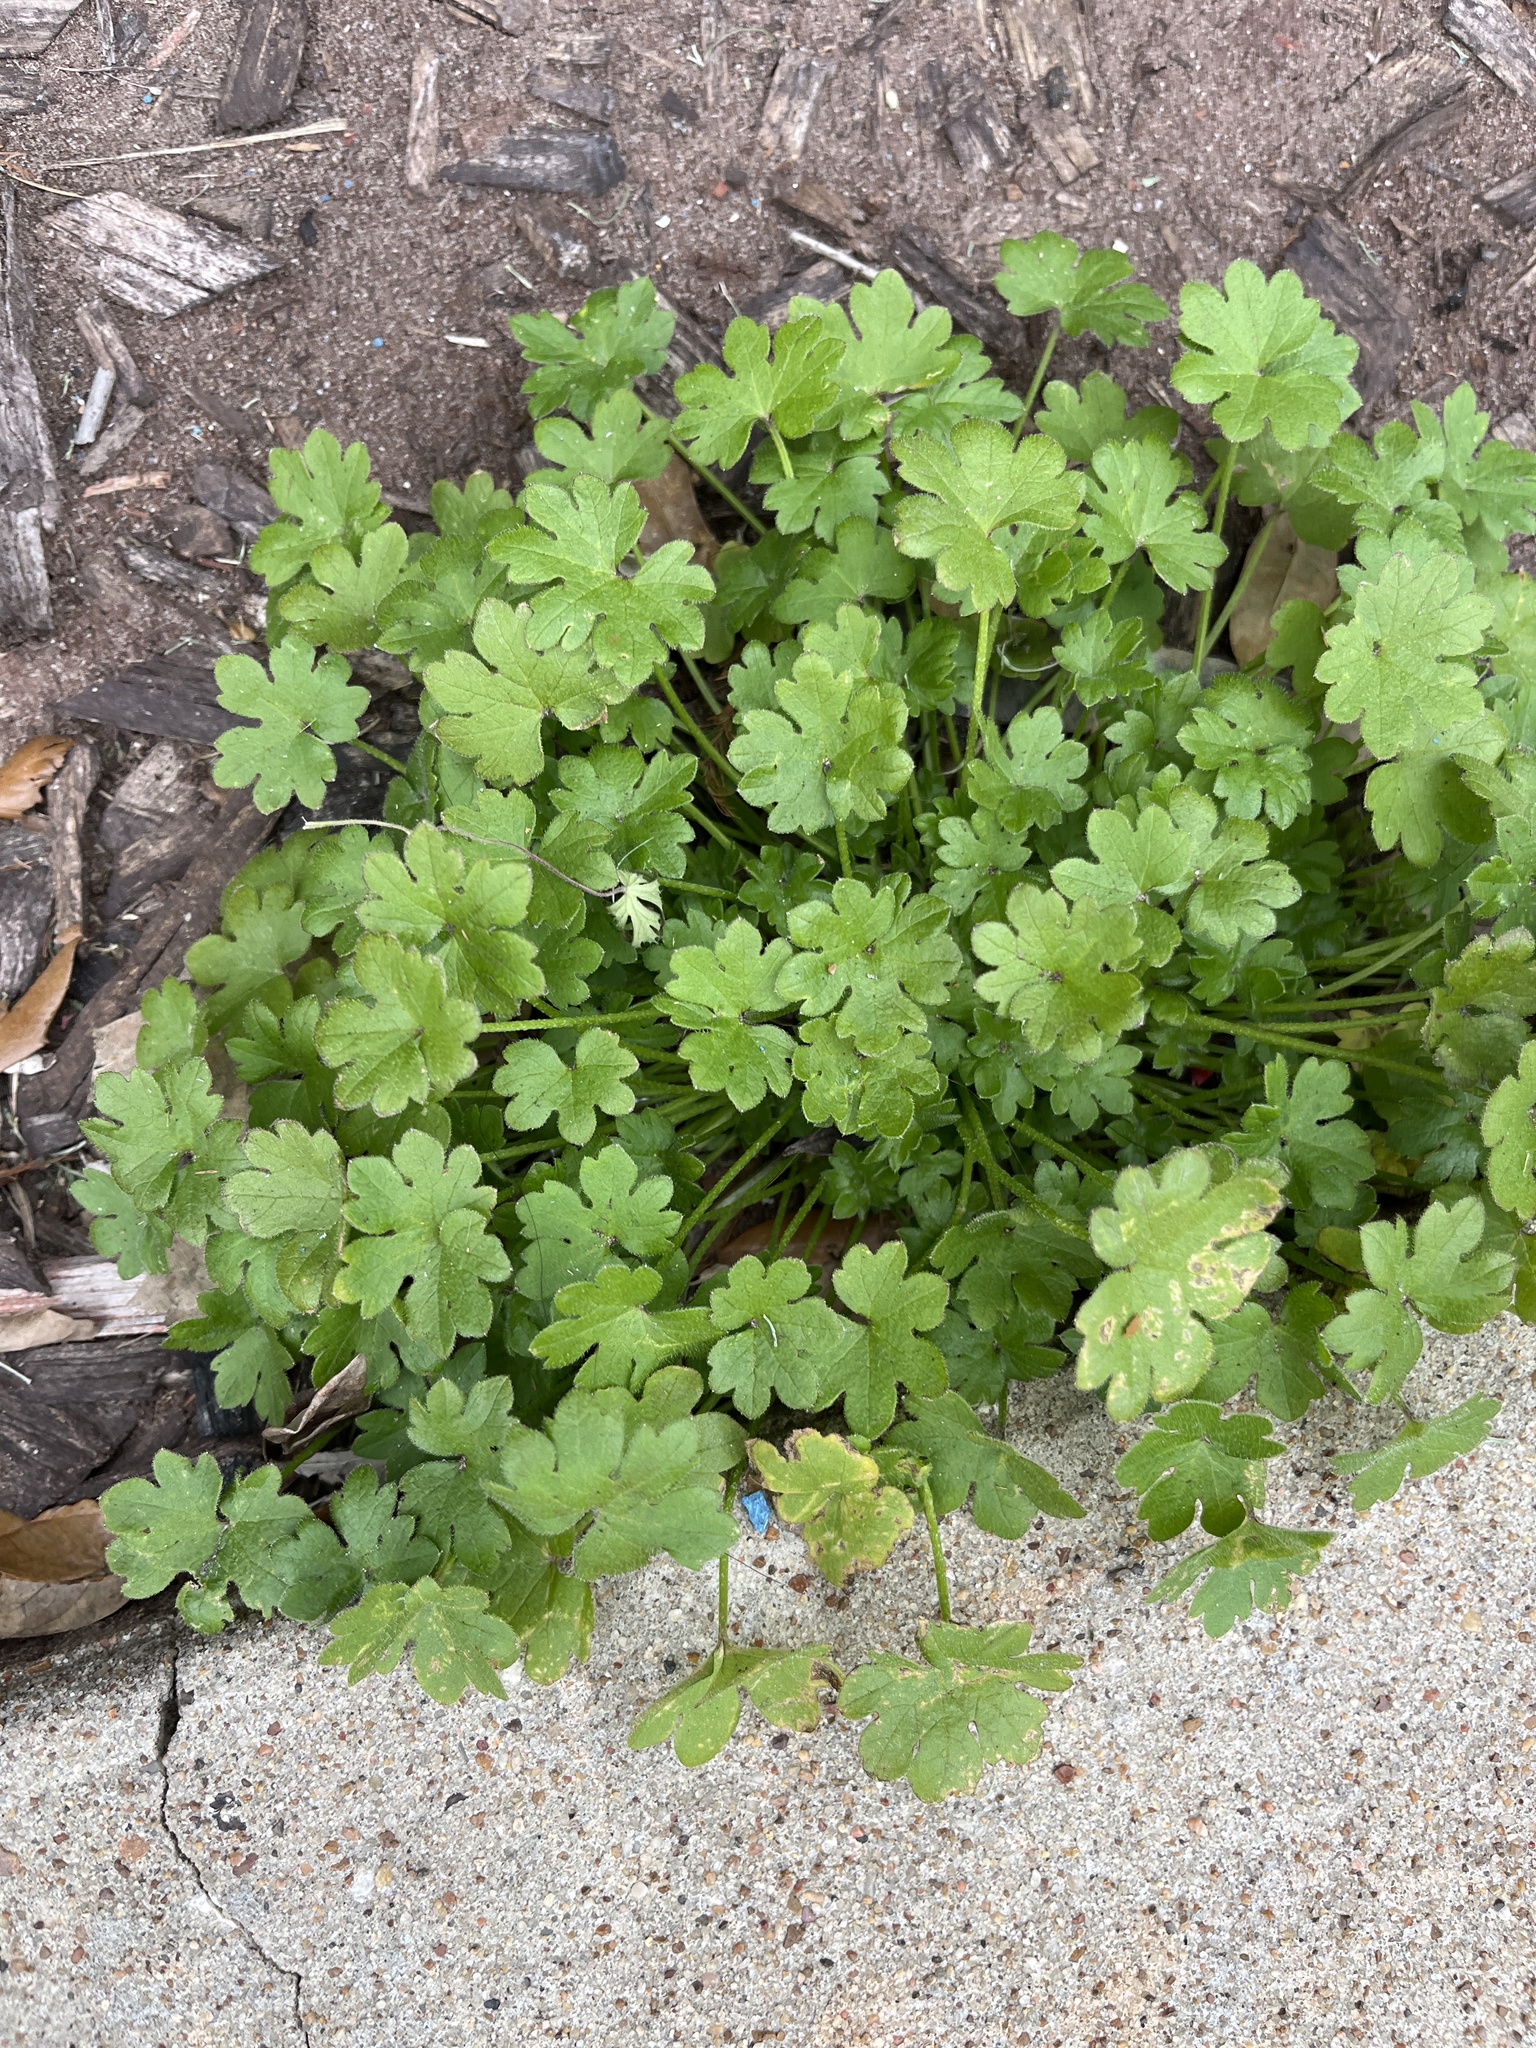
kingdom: Plantae
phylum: Tracheophyta
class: Magnoliopsida
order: Apiales
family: Apiaceae
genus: Bowlesia
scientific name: Bowlesia incana
